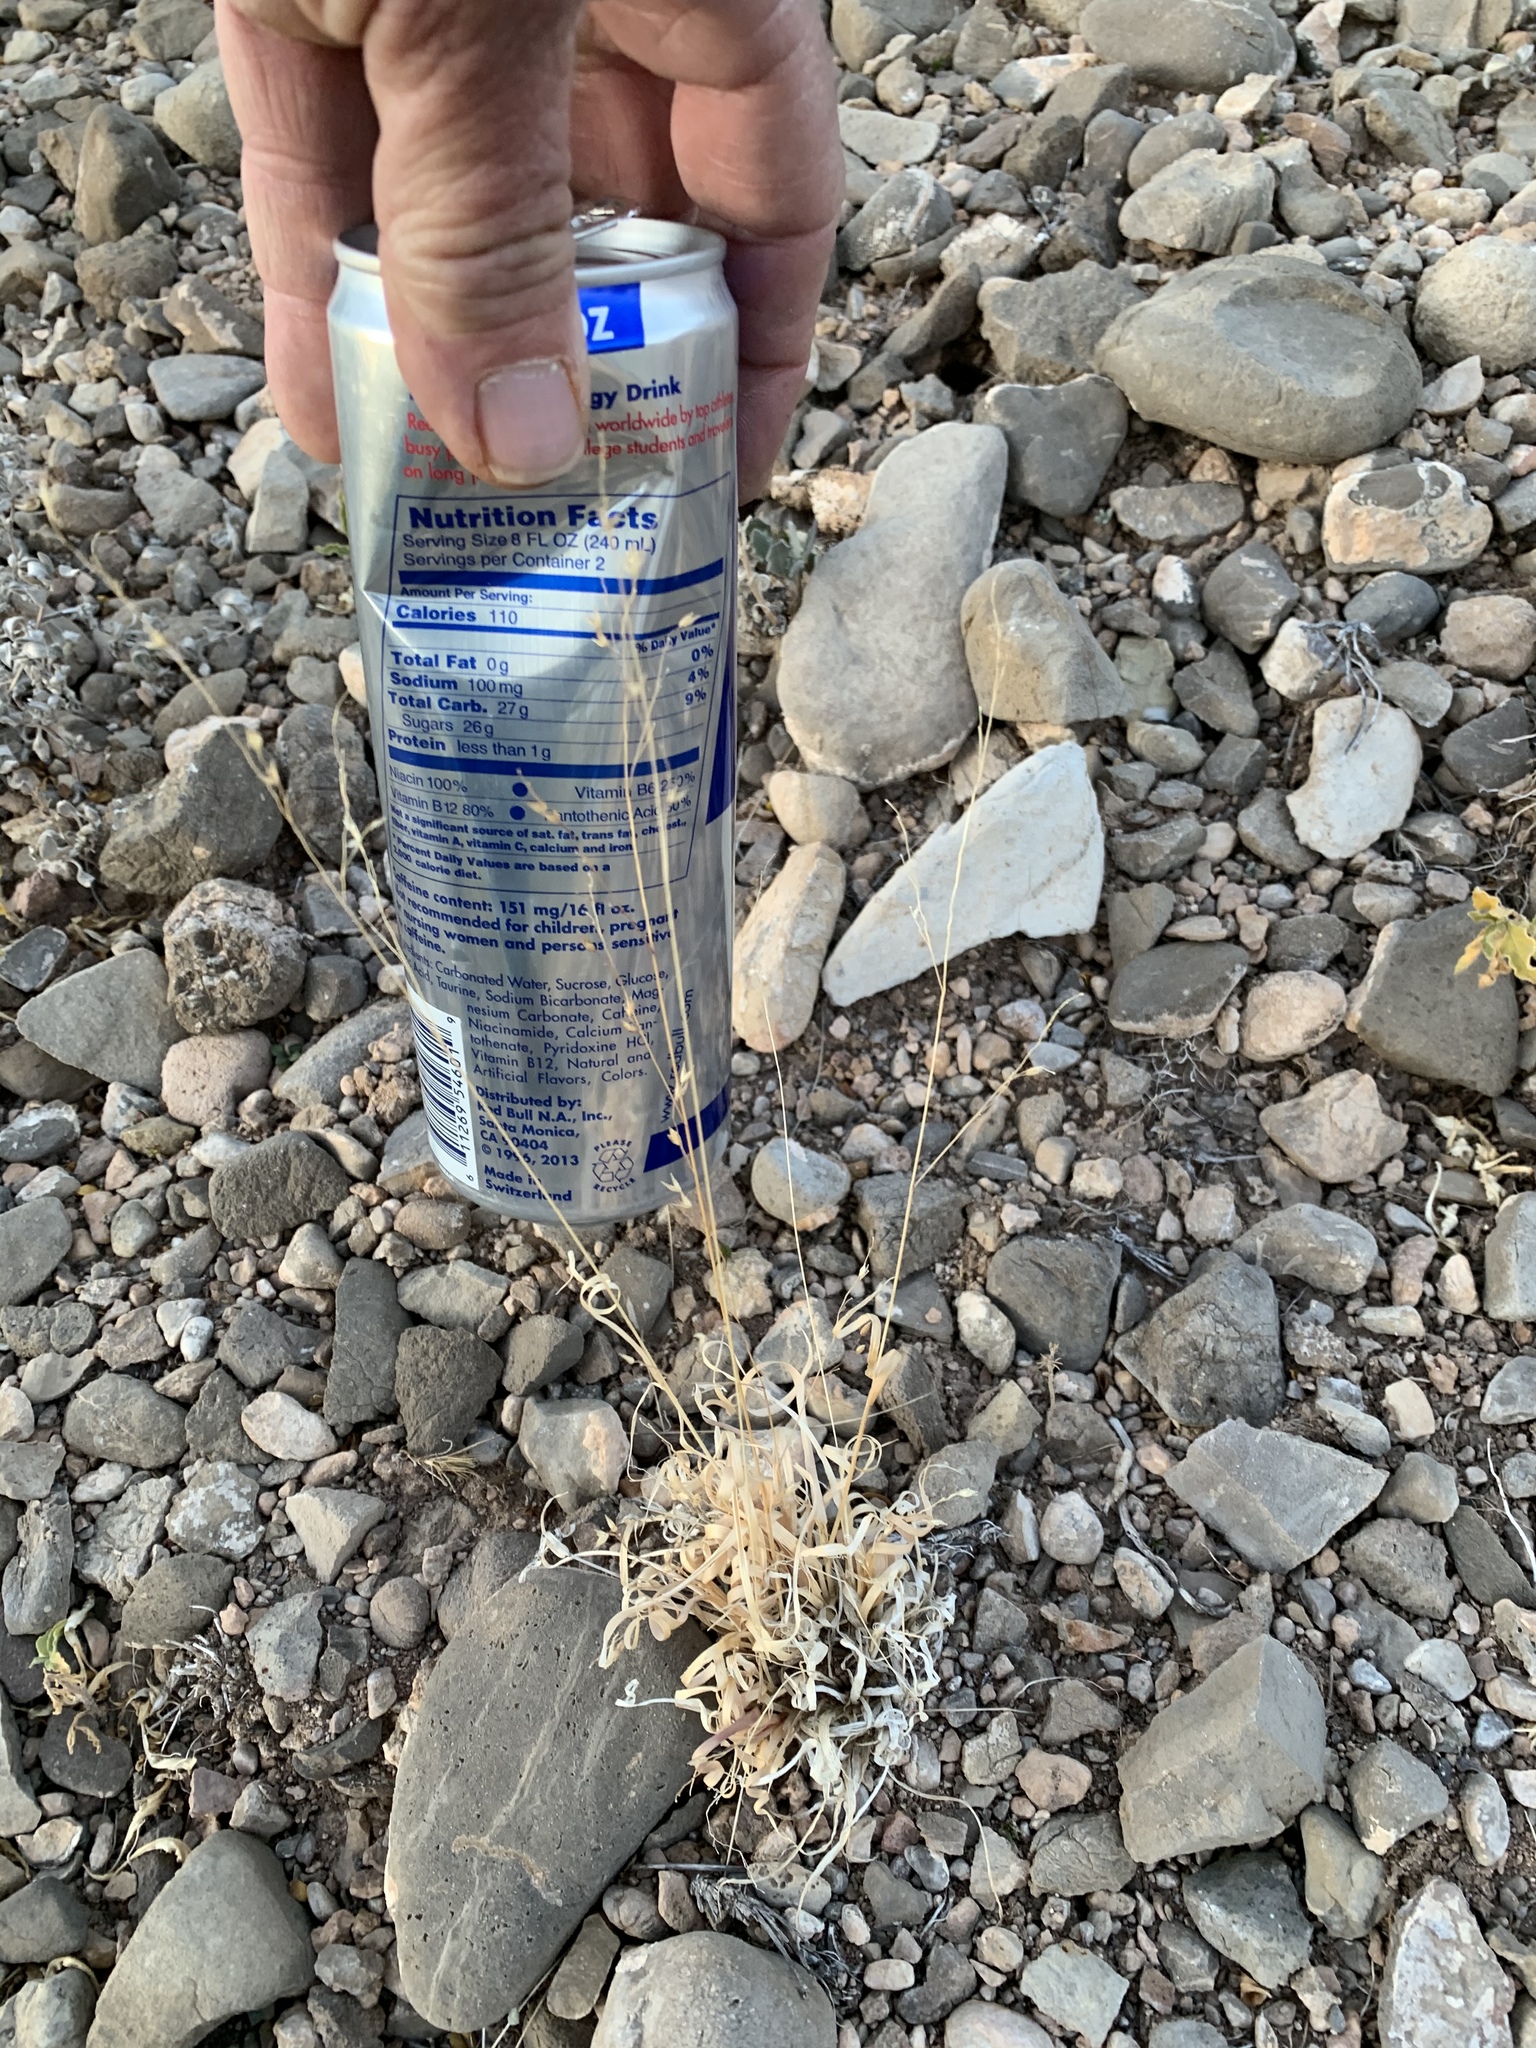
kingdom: Plantae
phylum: Tracheophyta
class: Liliopsida
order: Poales
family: Poaceae
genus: Panicum
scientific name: Panicum hallii
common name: Hall's witchgrass
